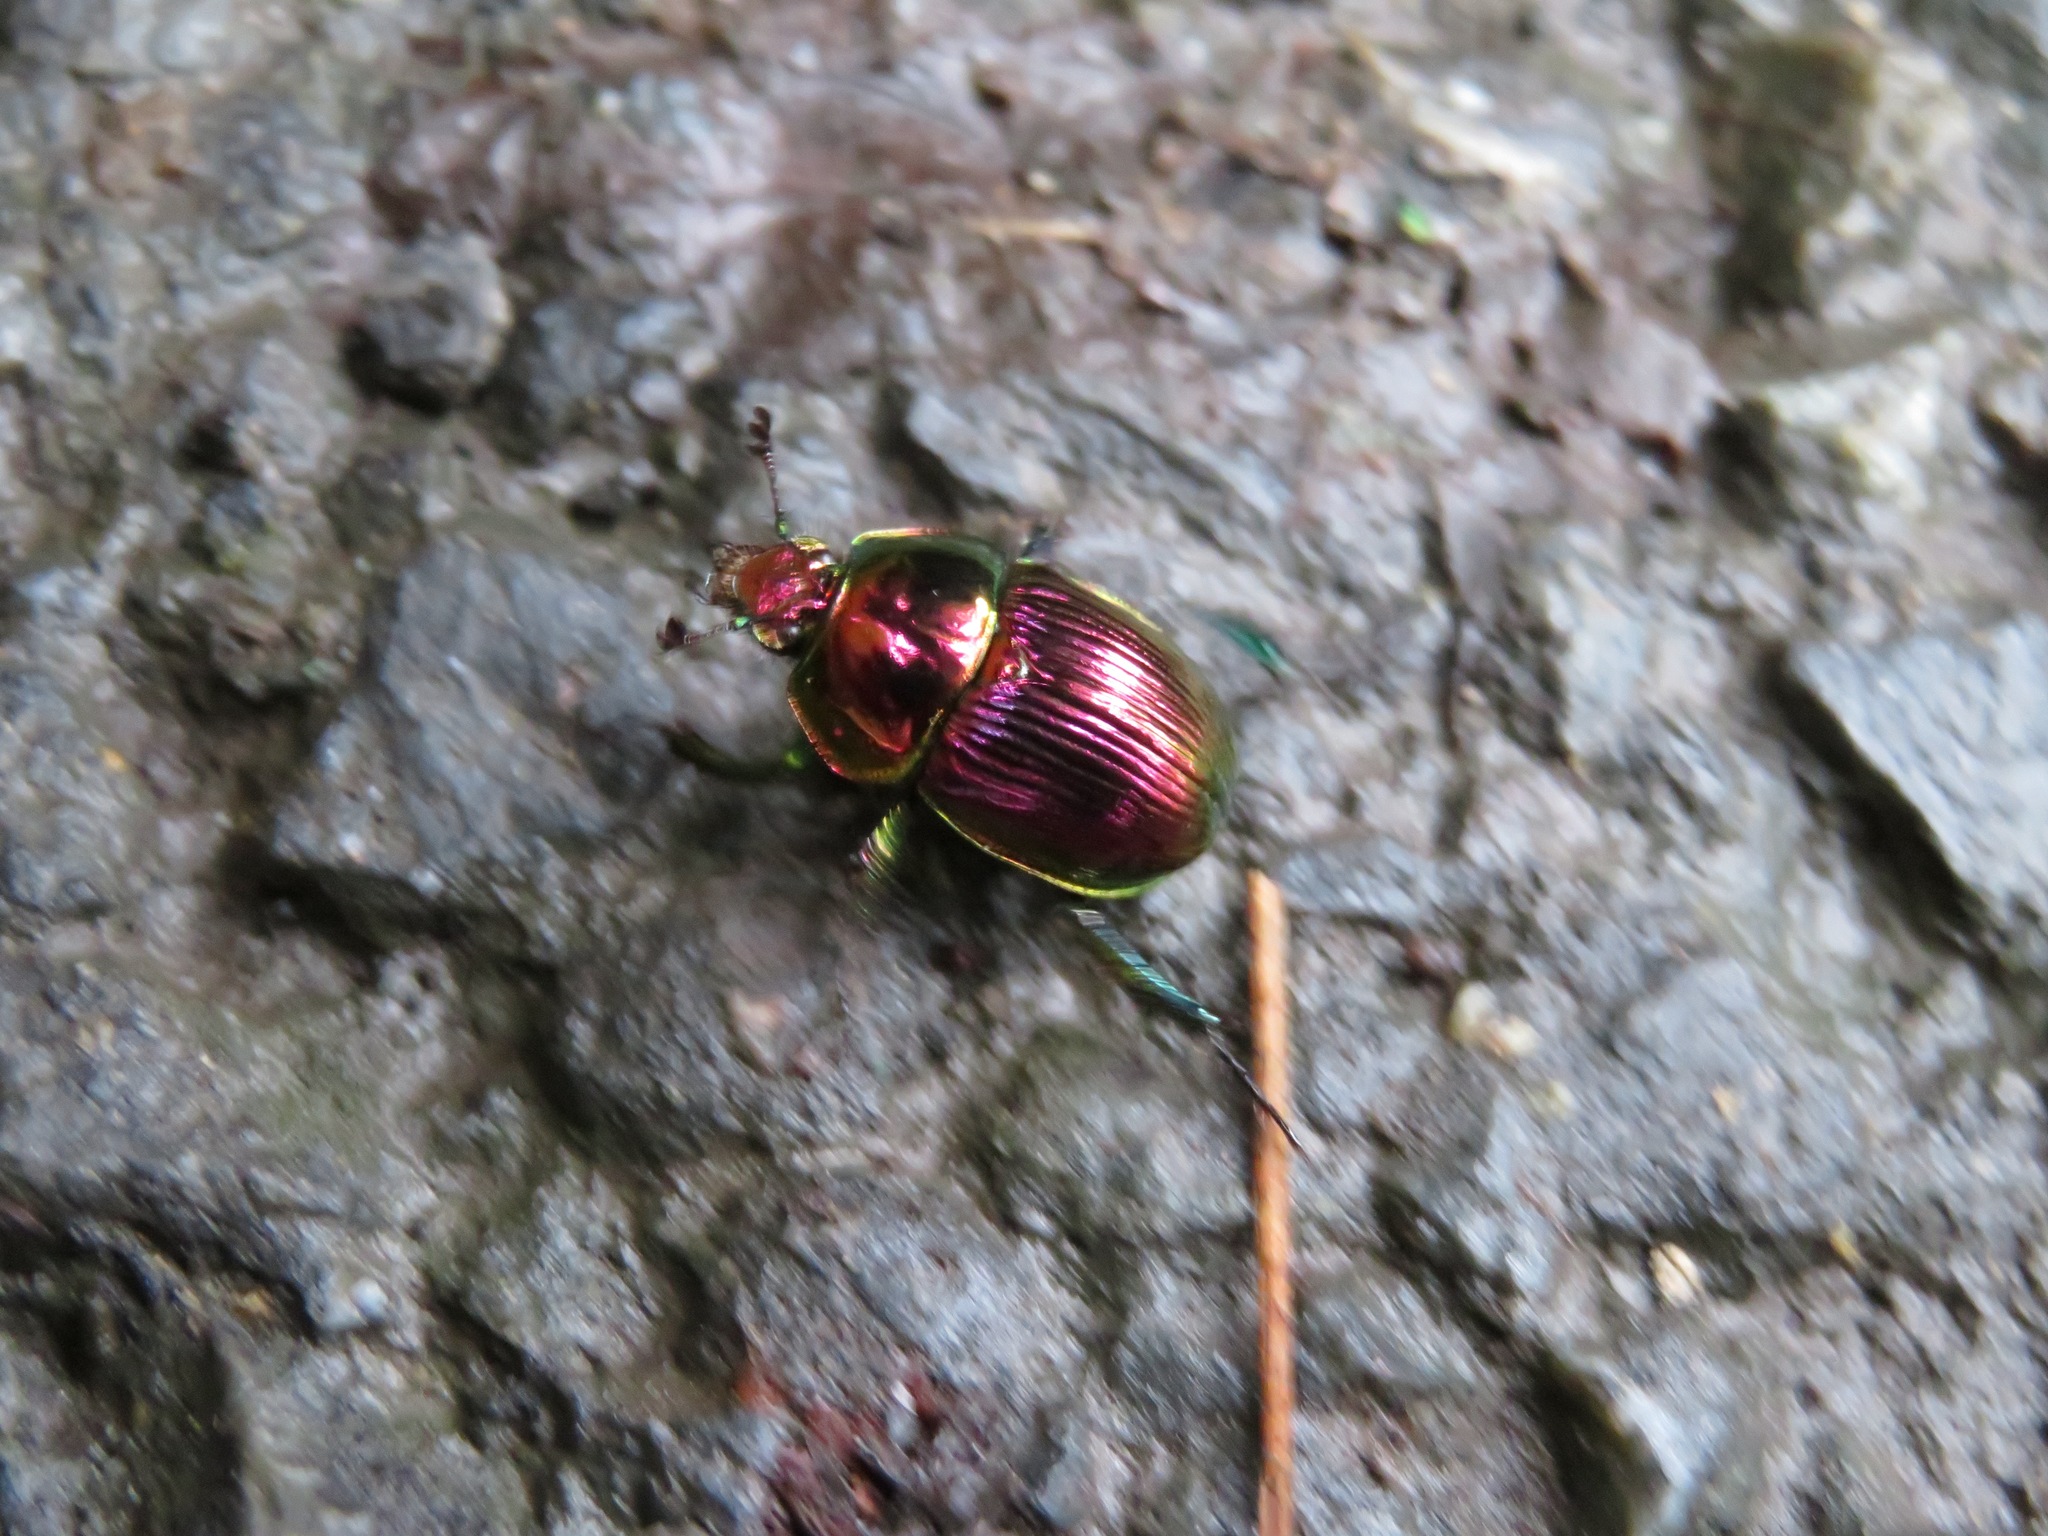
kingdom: Animalia
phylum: Arthropoda
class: Insecta
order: Coleoptera
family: Geotrupidae
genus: Phelotrupes
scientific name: Phelotrupes auratus
